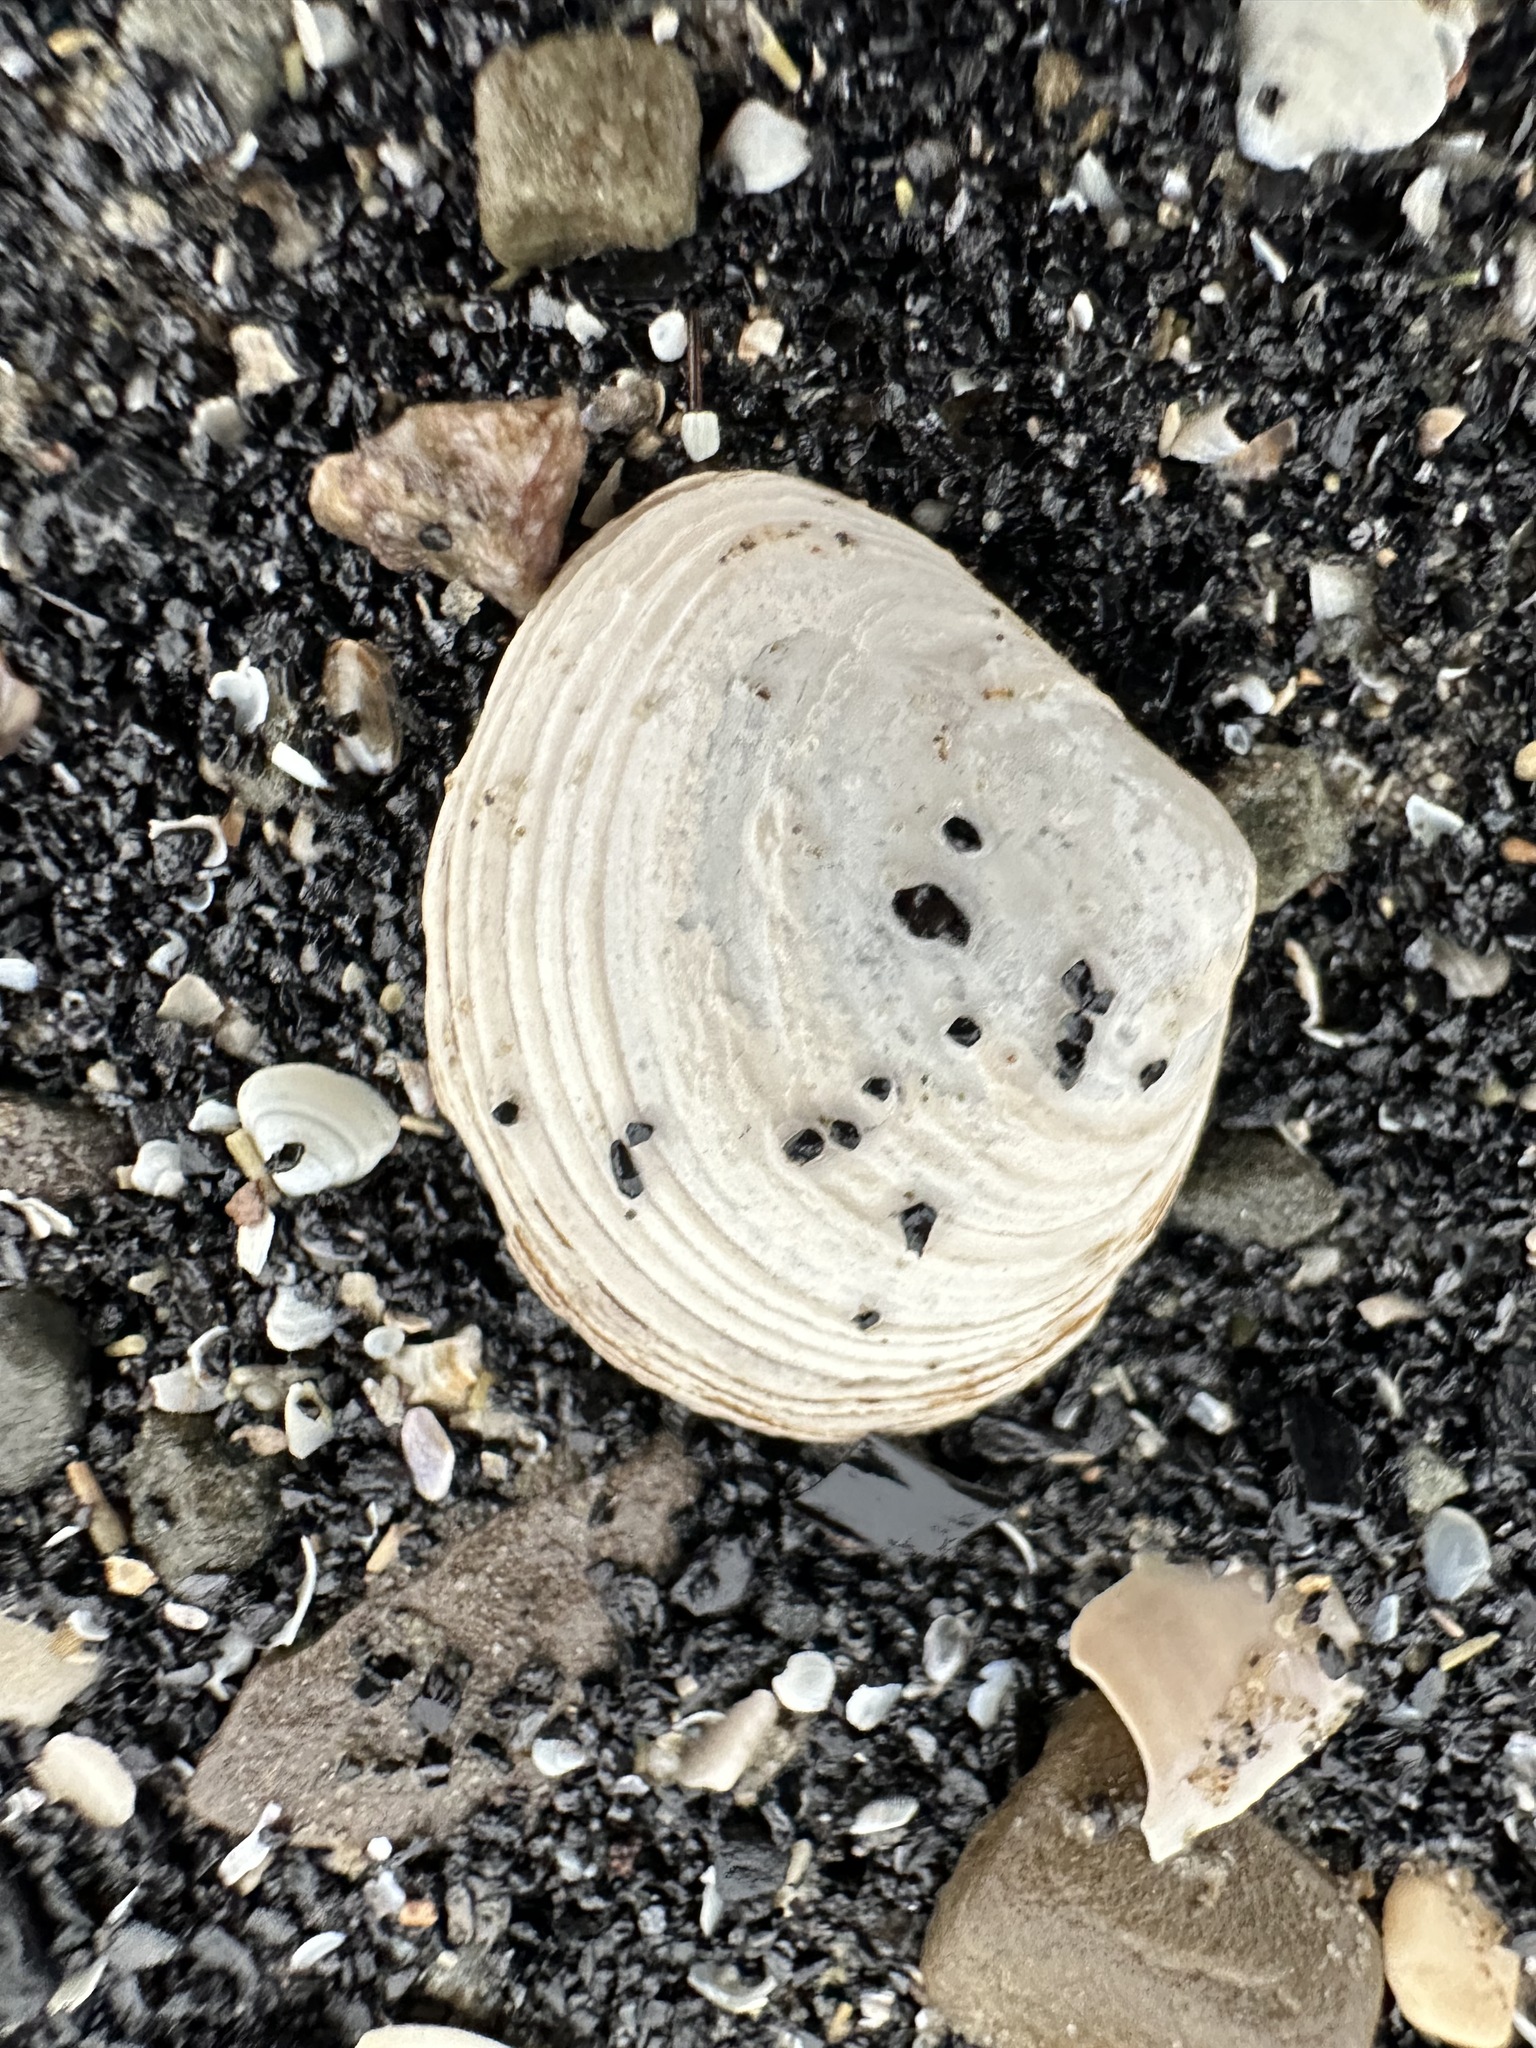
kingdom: Animalia
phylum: Mollusca
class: Bivalvia
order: Cardiida
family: Tellinidae
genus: Macoma
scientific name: Macoma petalum
